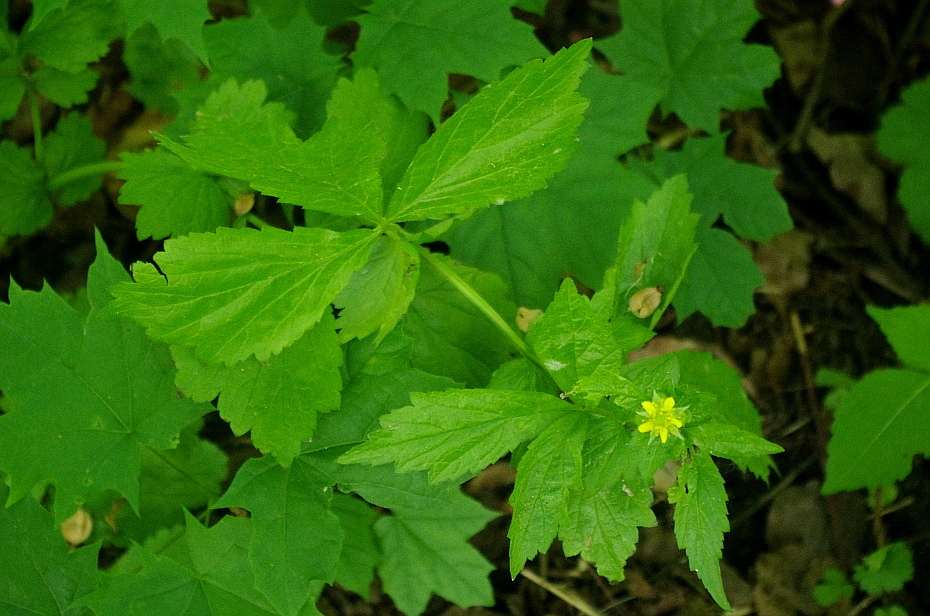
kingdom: Plantae
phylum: Tracheophyta
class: Magnoliopsida
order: Rosales
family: Rosaceae
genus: Geum
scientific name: Geum urbanum
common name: Wood avens
